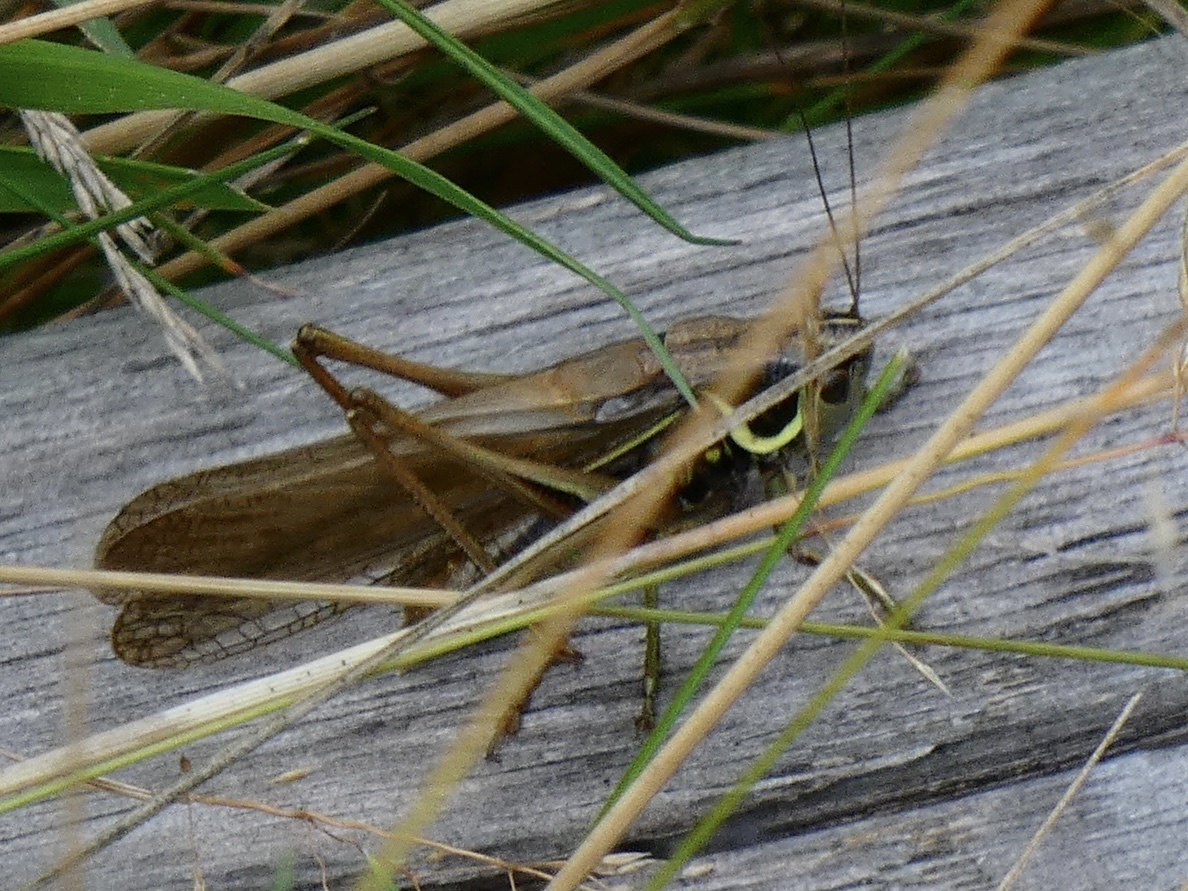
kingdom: Animalia
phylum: Arthropoda
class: Insecta
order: Orthoptera
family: Tettigoniidae
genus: Roeseliana
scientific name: Roeseliana roeselii
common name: Roesel's bush cricket
